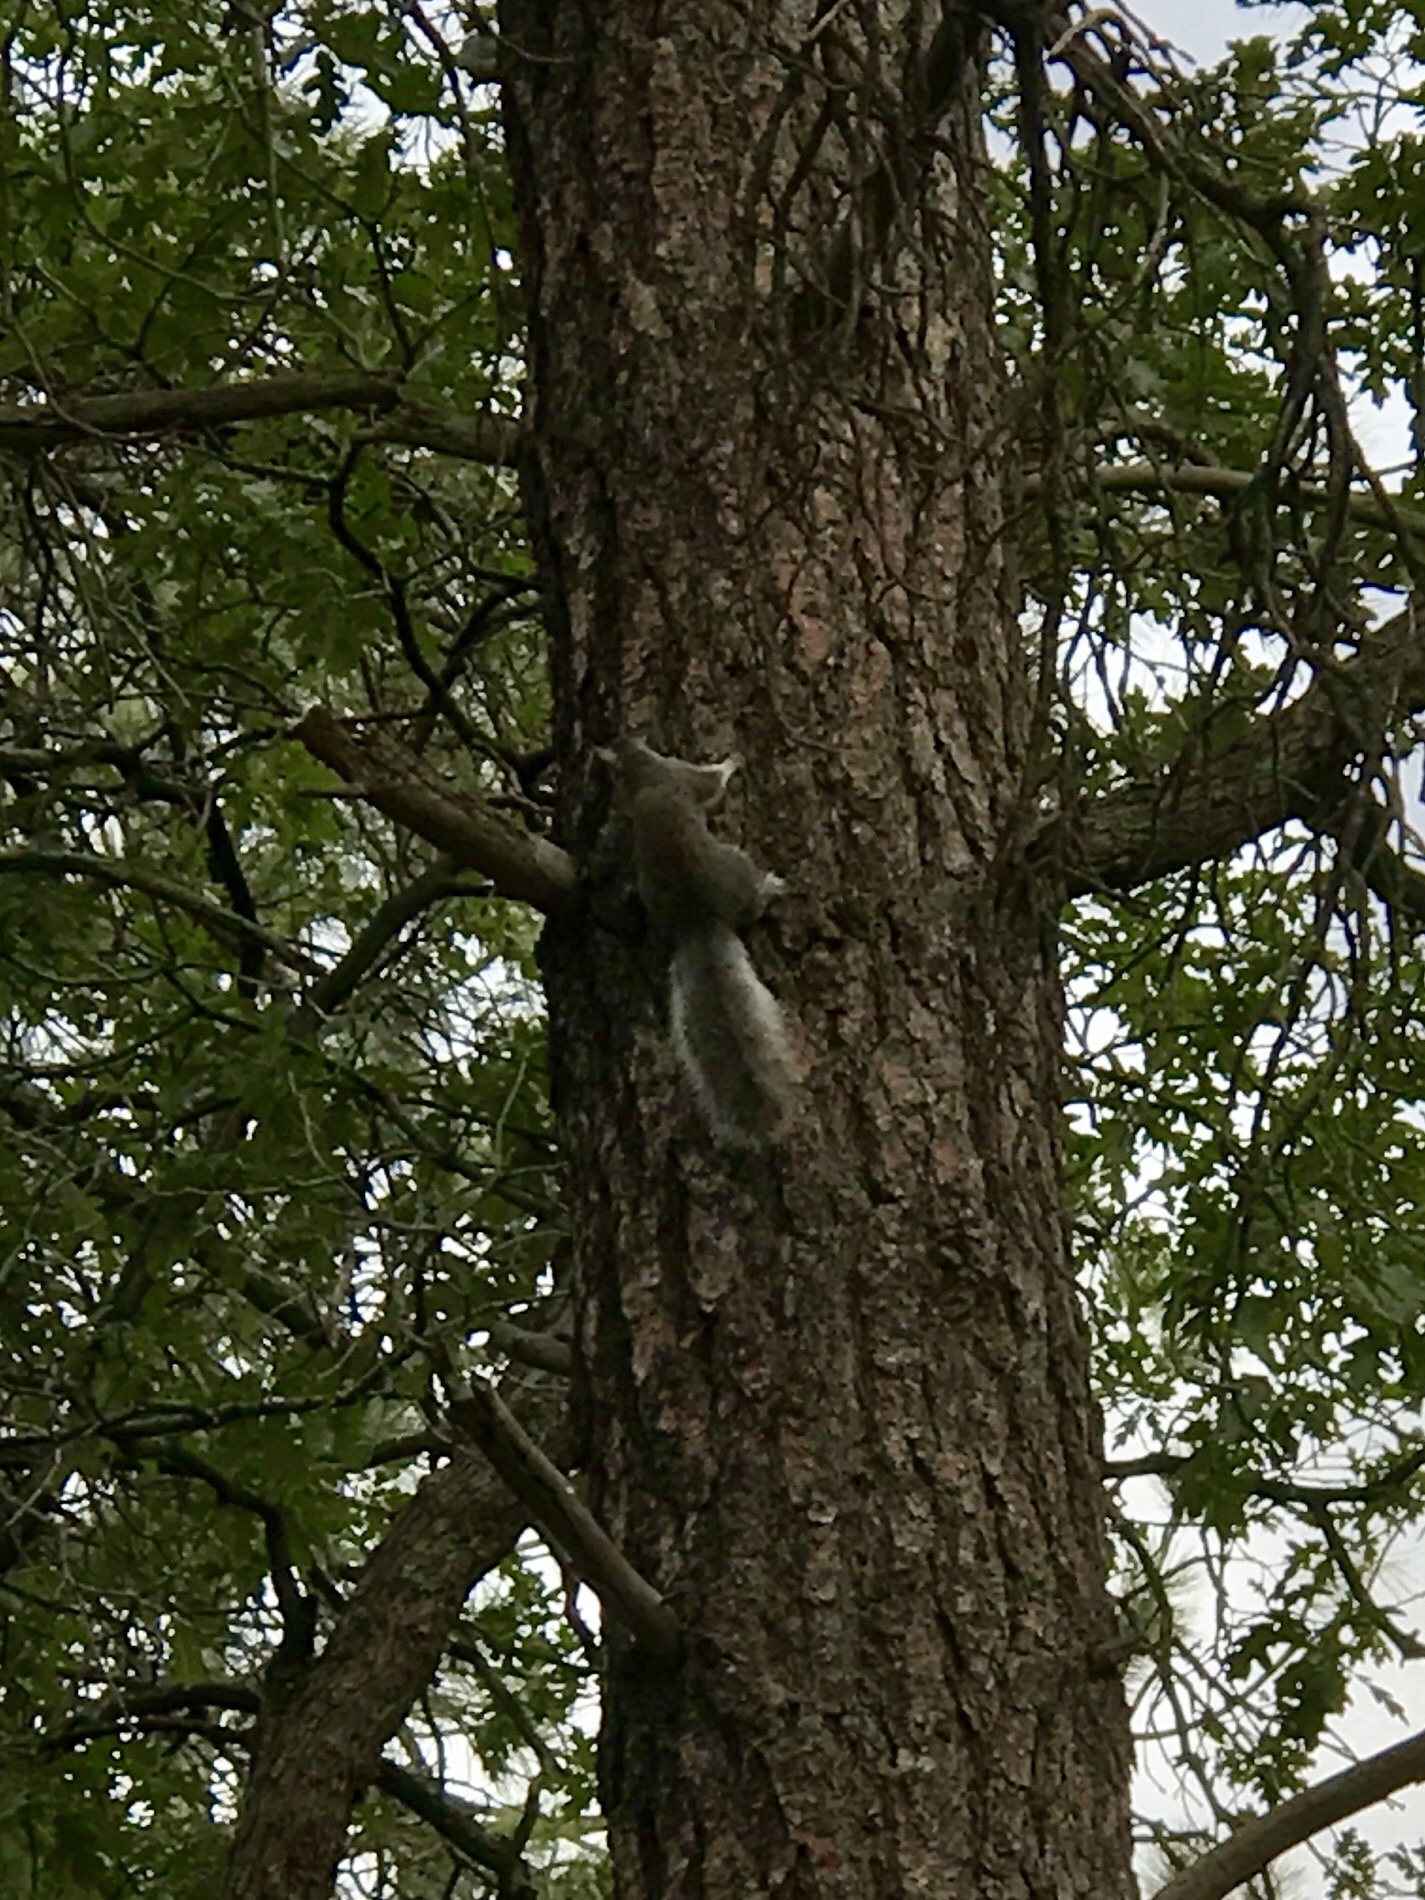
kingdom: Animalia
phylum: Chordata
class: Mammalia
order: Rodentia
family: Sciuridae
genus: Sciurus
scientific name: Sciurus aberti
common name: Abert's squirrel
